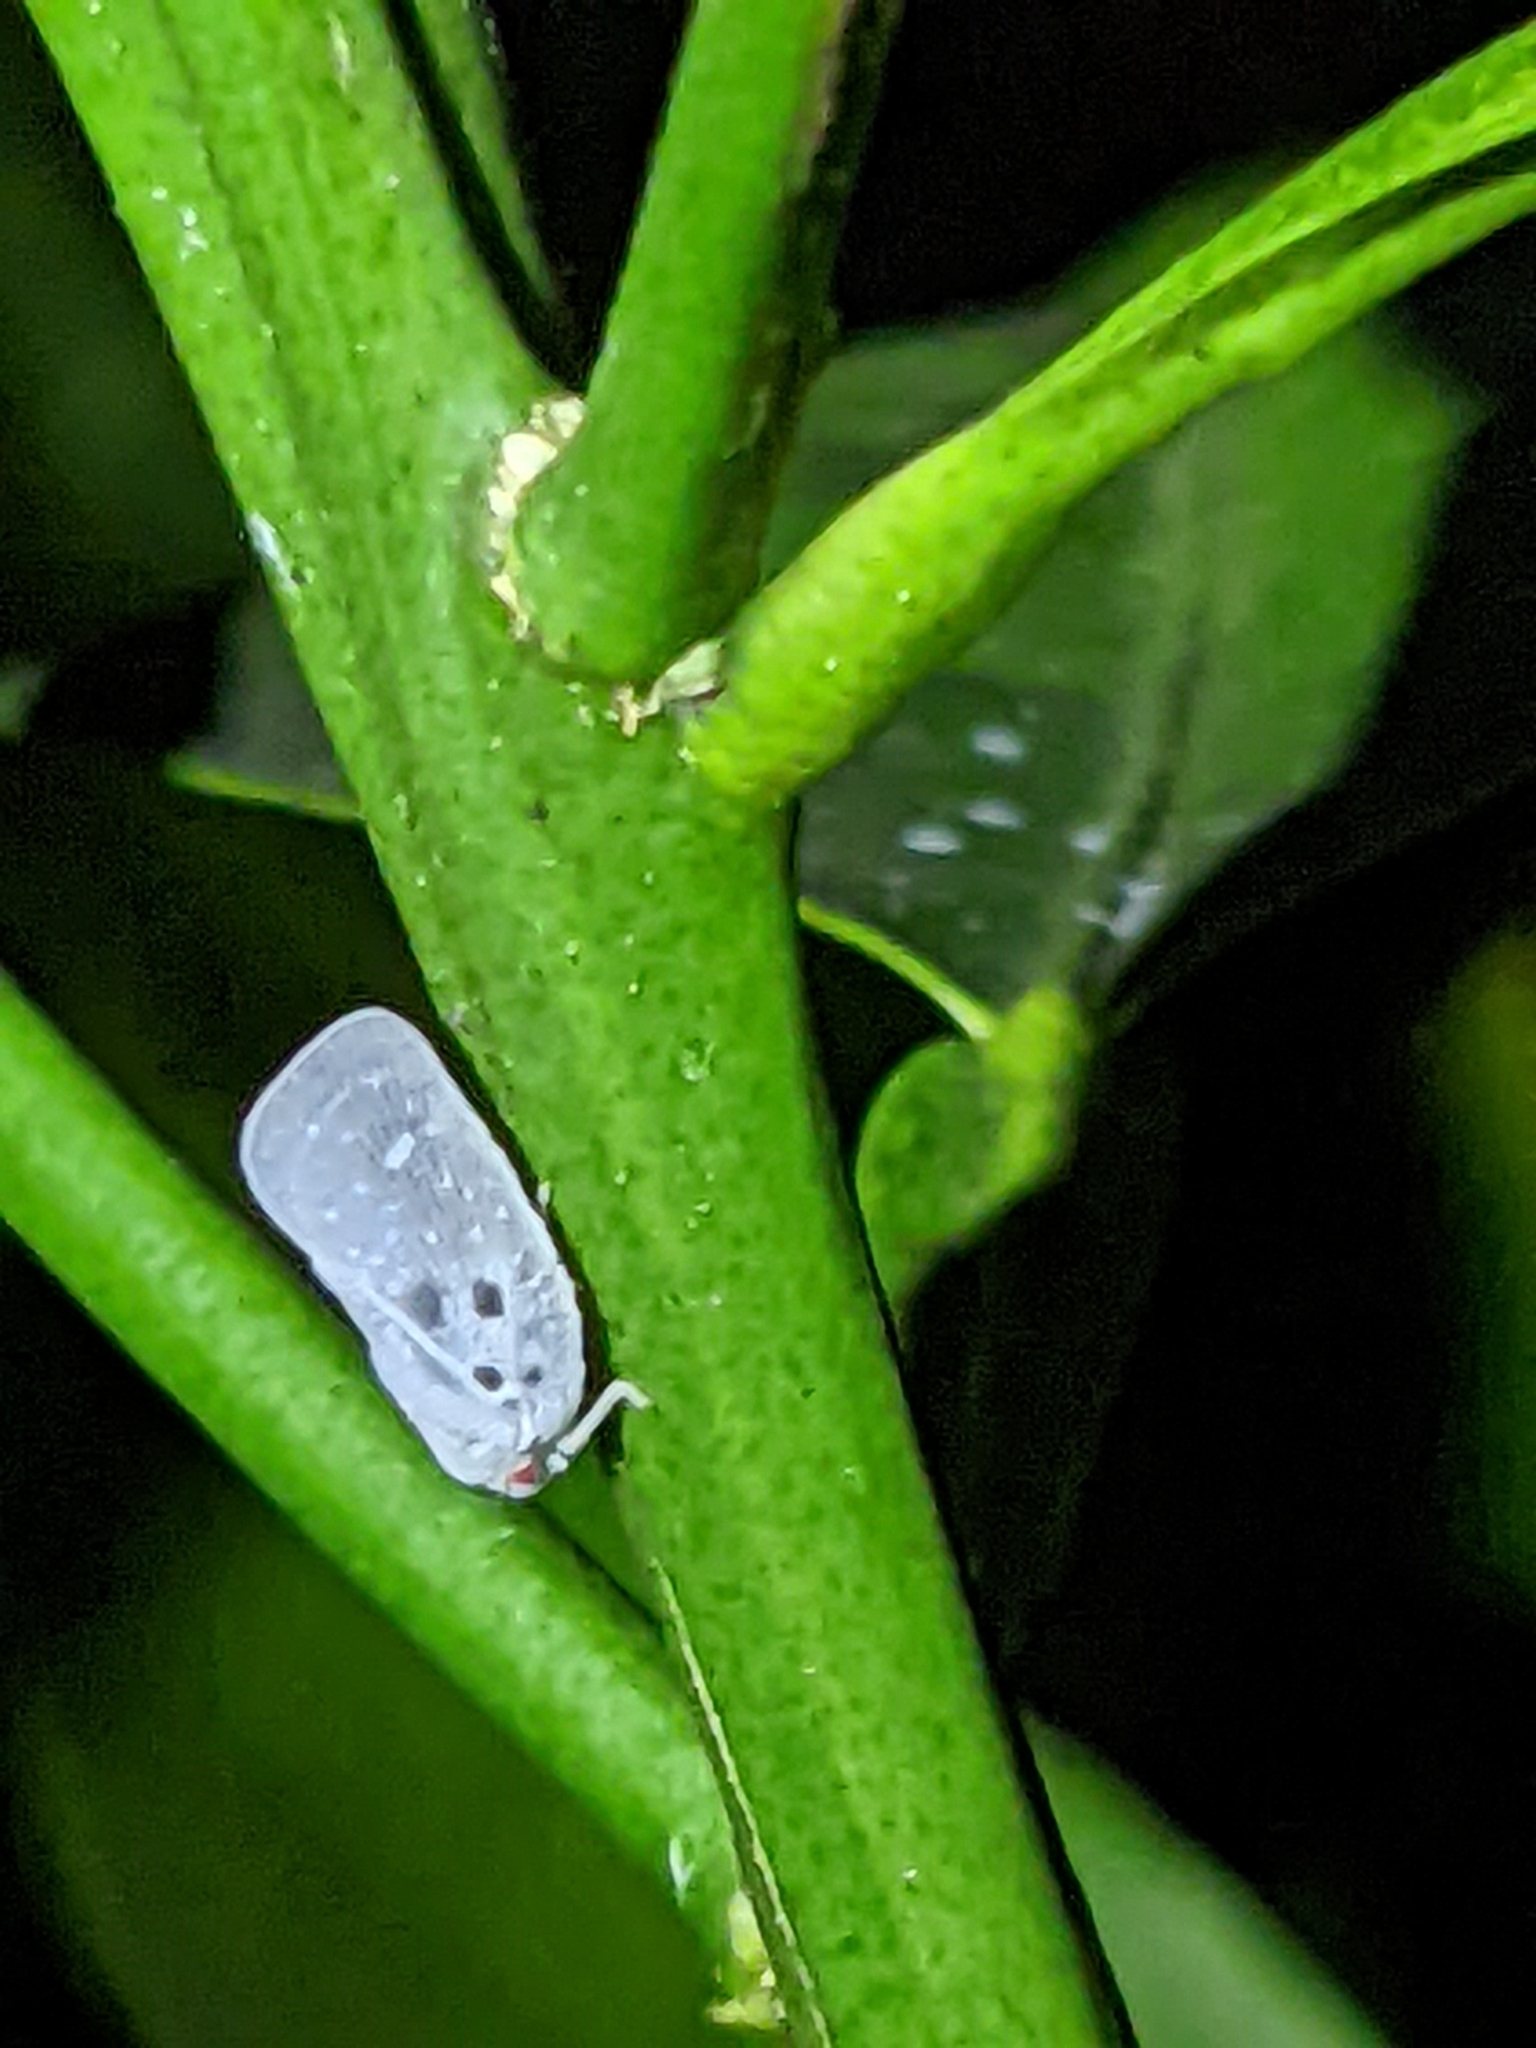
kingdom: Animalia
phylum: Arthropoda
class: Insecta
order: Hemiptera
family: Flatidae
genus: Metcalfa
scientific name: Metcalfa pruinosa
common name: Citrus flatid planthopper
